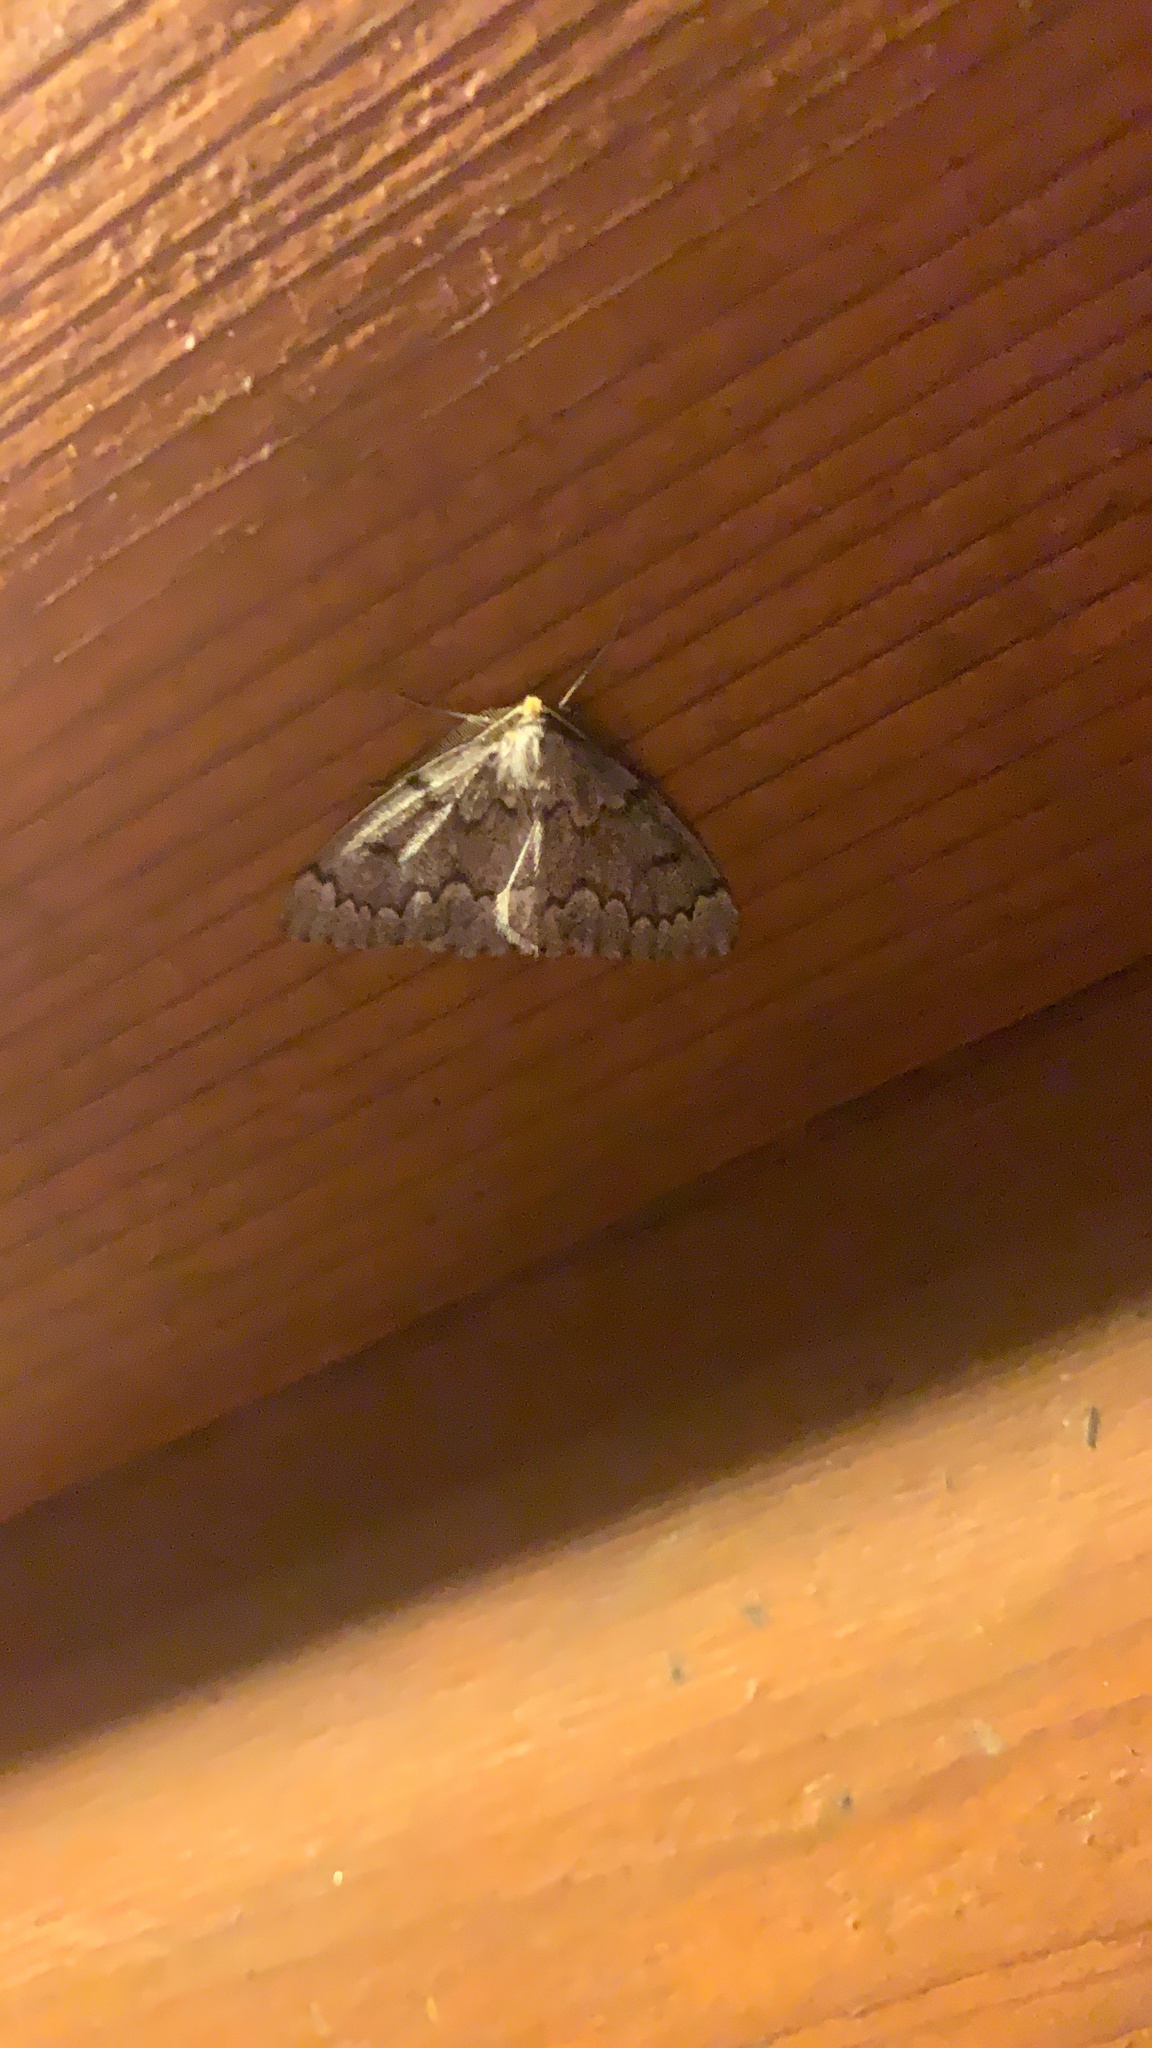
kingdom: Animalia
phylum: Arthropoda
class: Insecta
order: Lepidoptera
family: Geometridae
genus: Nepytia
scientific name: Nepytia canosaria
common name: False hemlock looper
